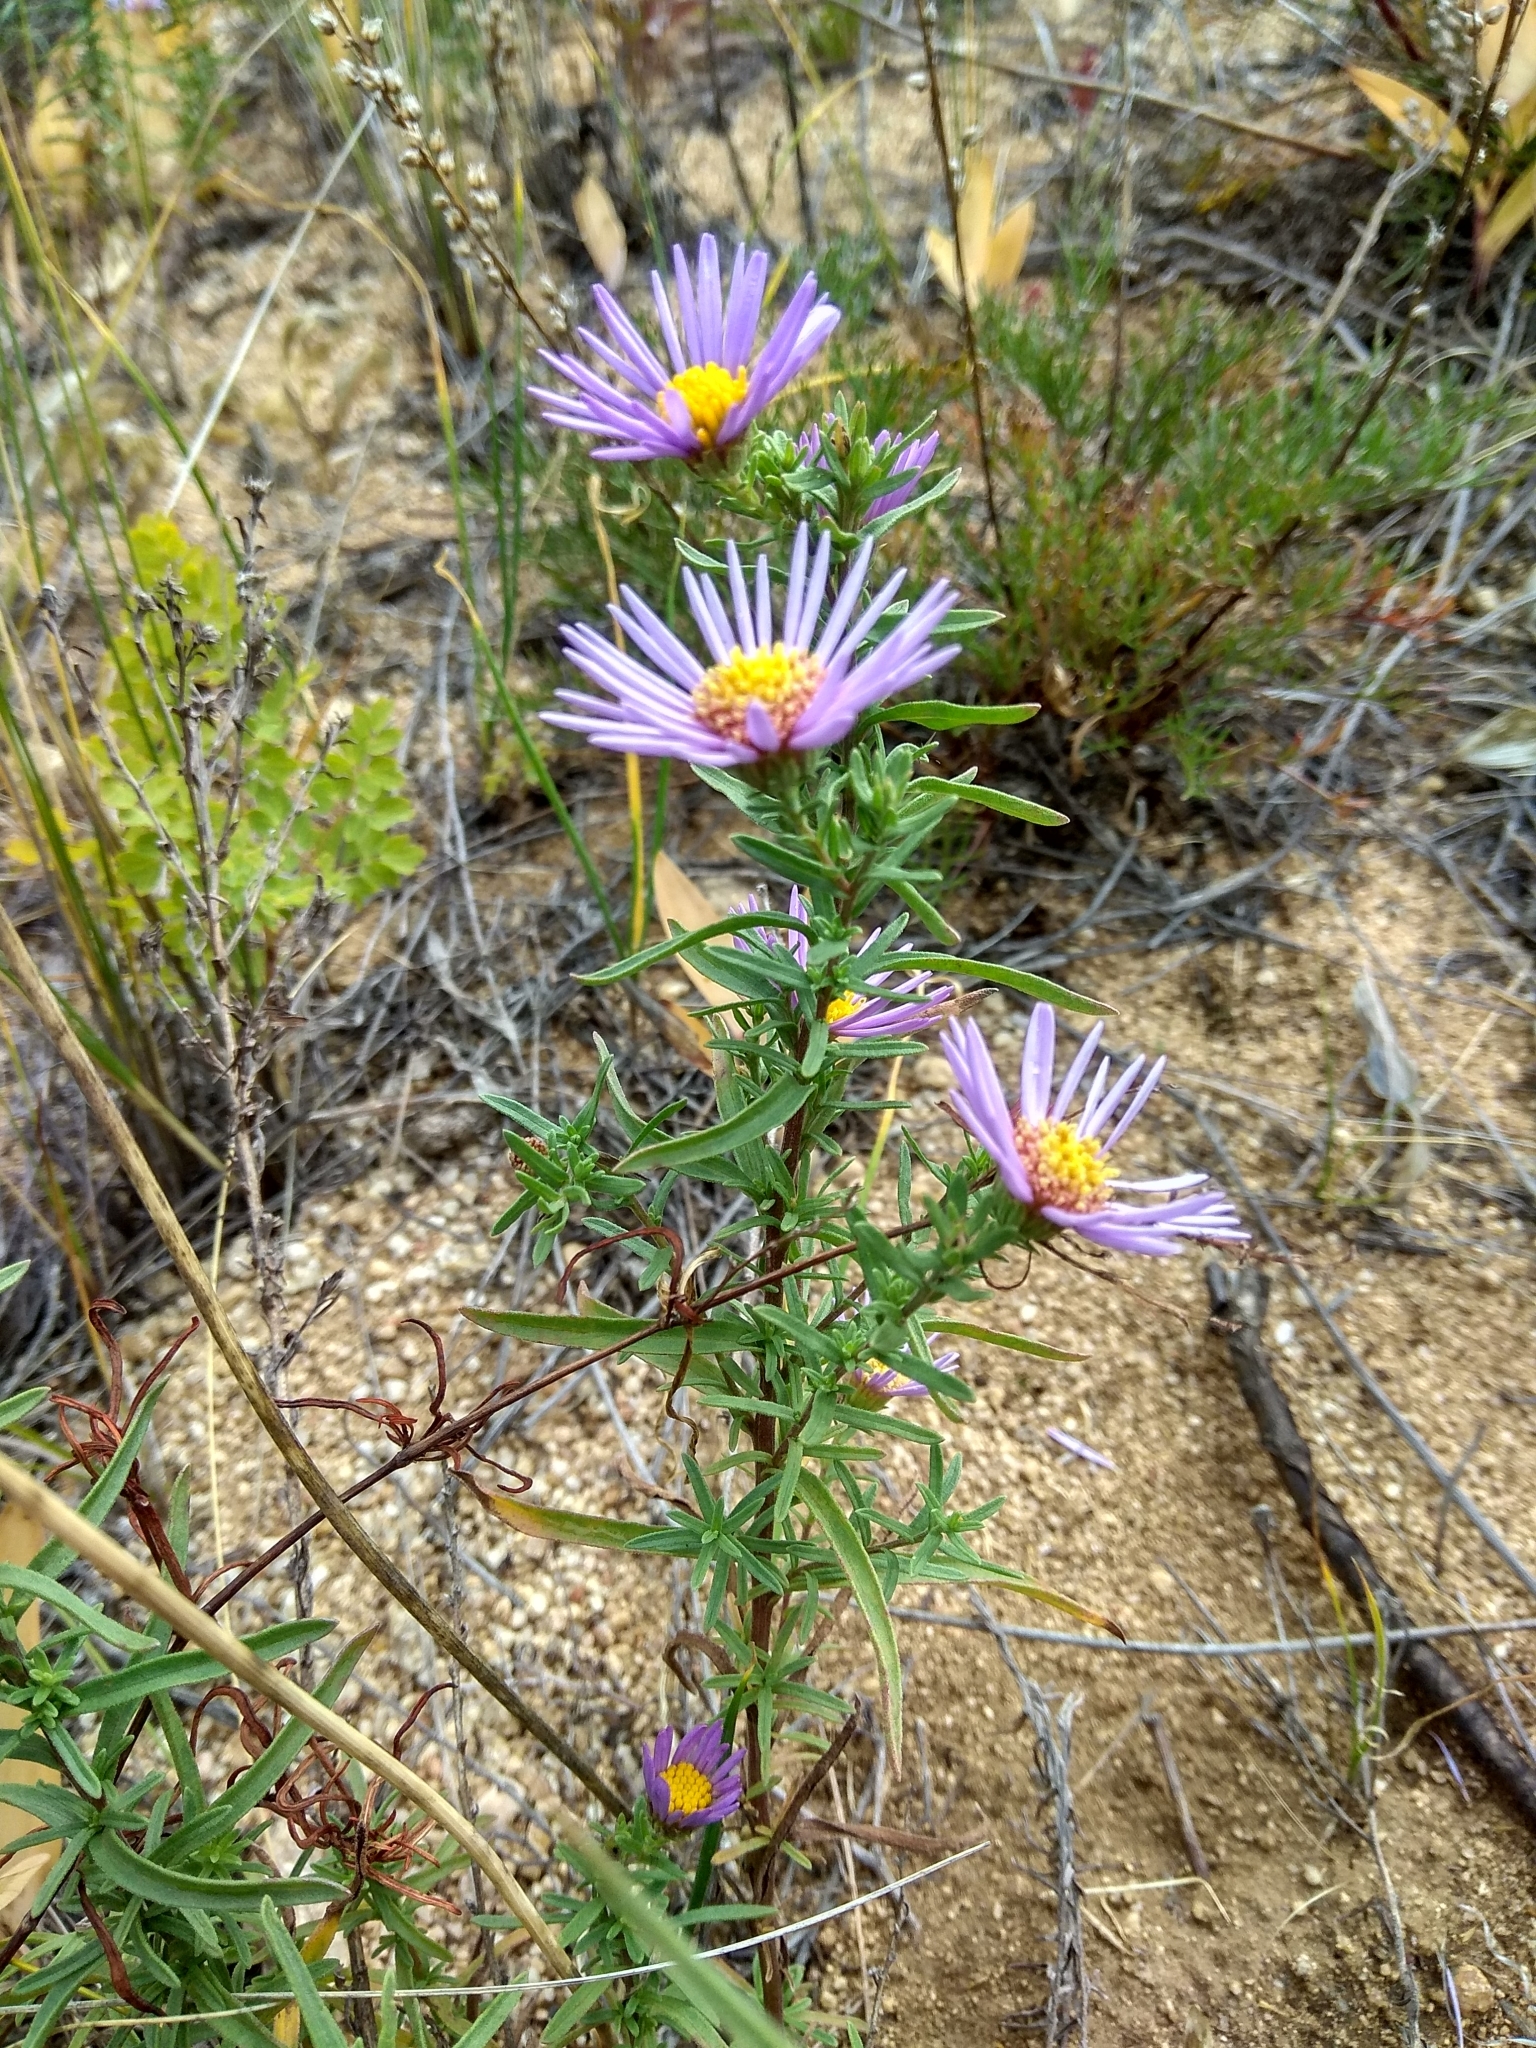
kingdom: Plantae
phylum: Tracheophyta
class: Magnoliopsida
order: Asterales
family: Asteraceae
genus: Aster
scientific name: Aster biennis
